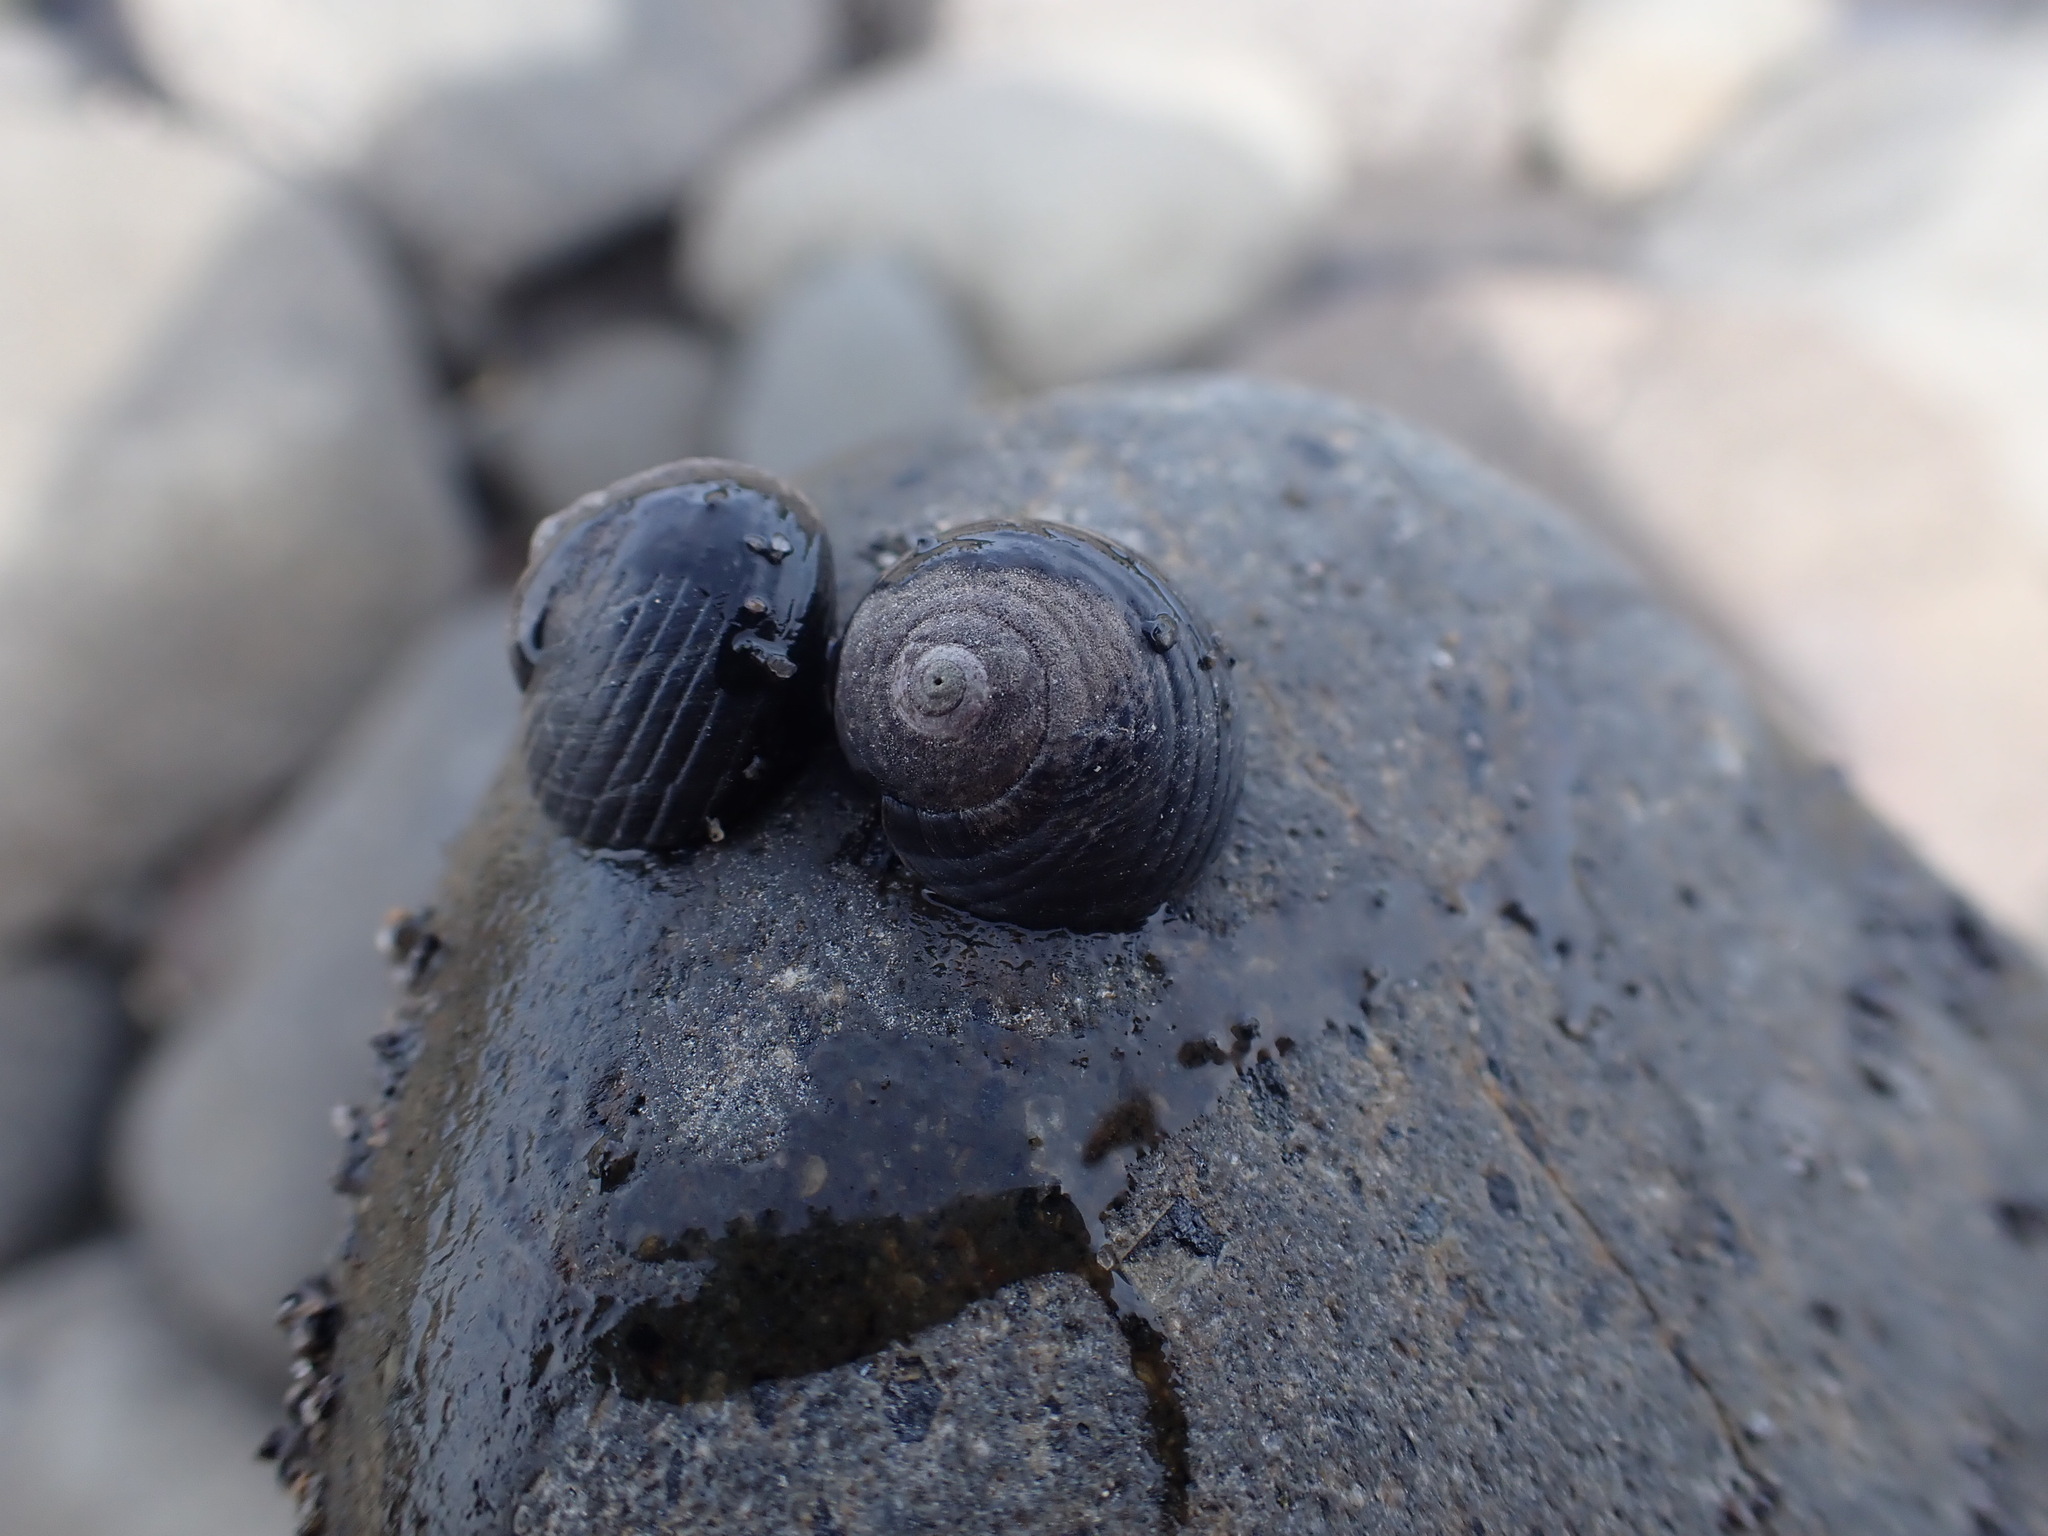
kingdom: Animalia
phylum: Mollusca
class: Gastropoda
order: Trochida
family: Trochidae
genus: Diloma
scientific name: Diloma zelandicum
